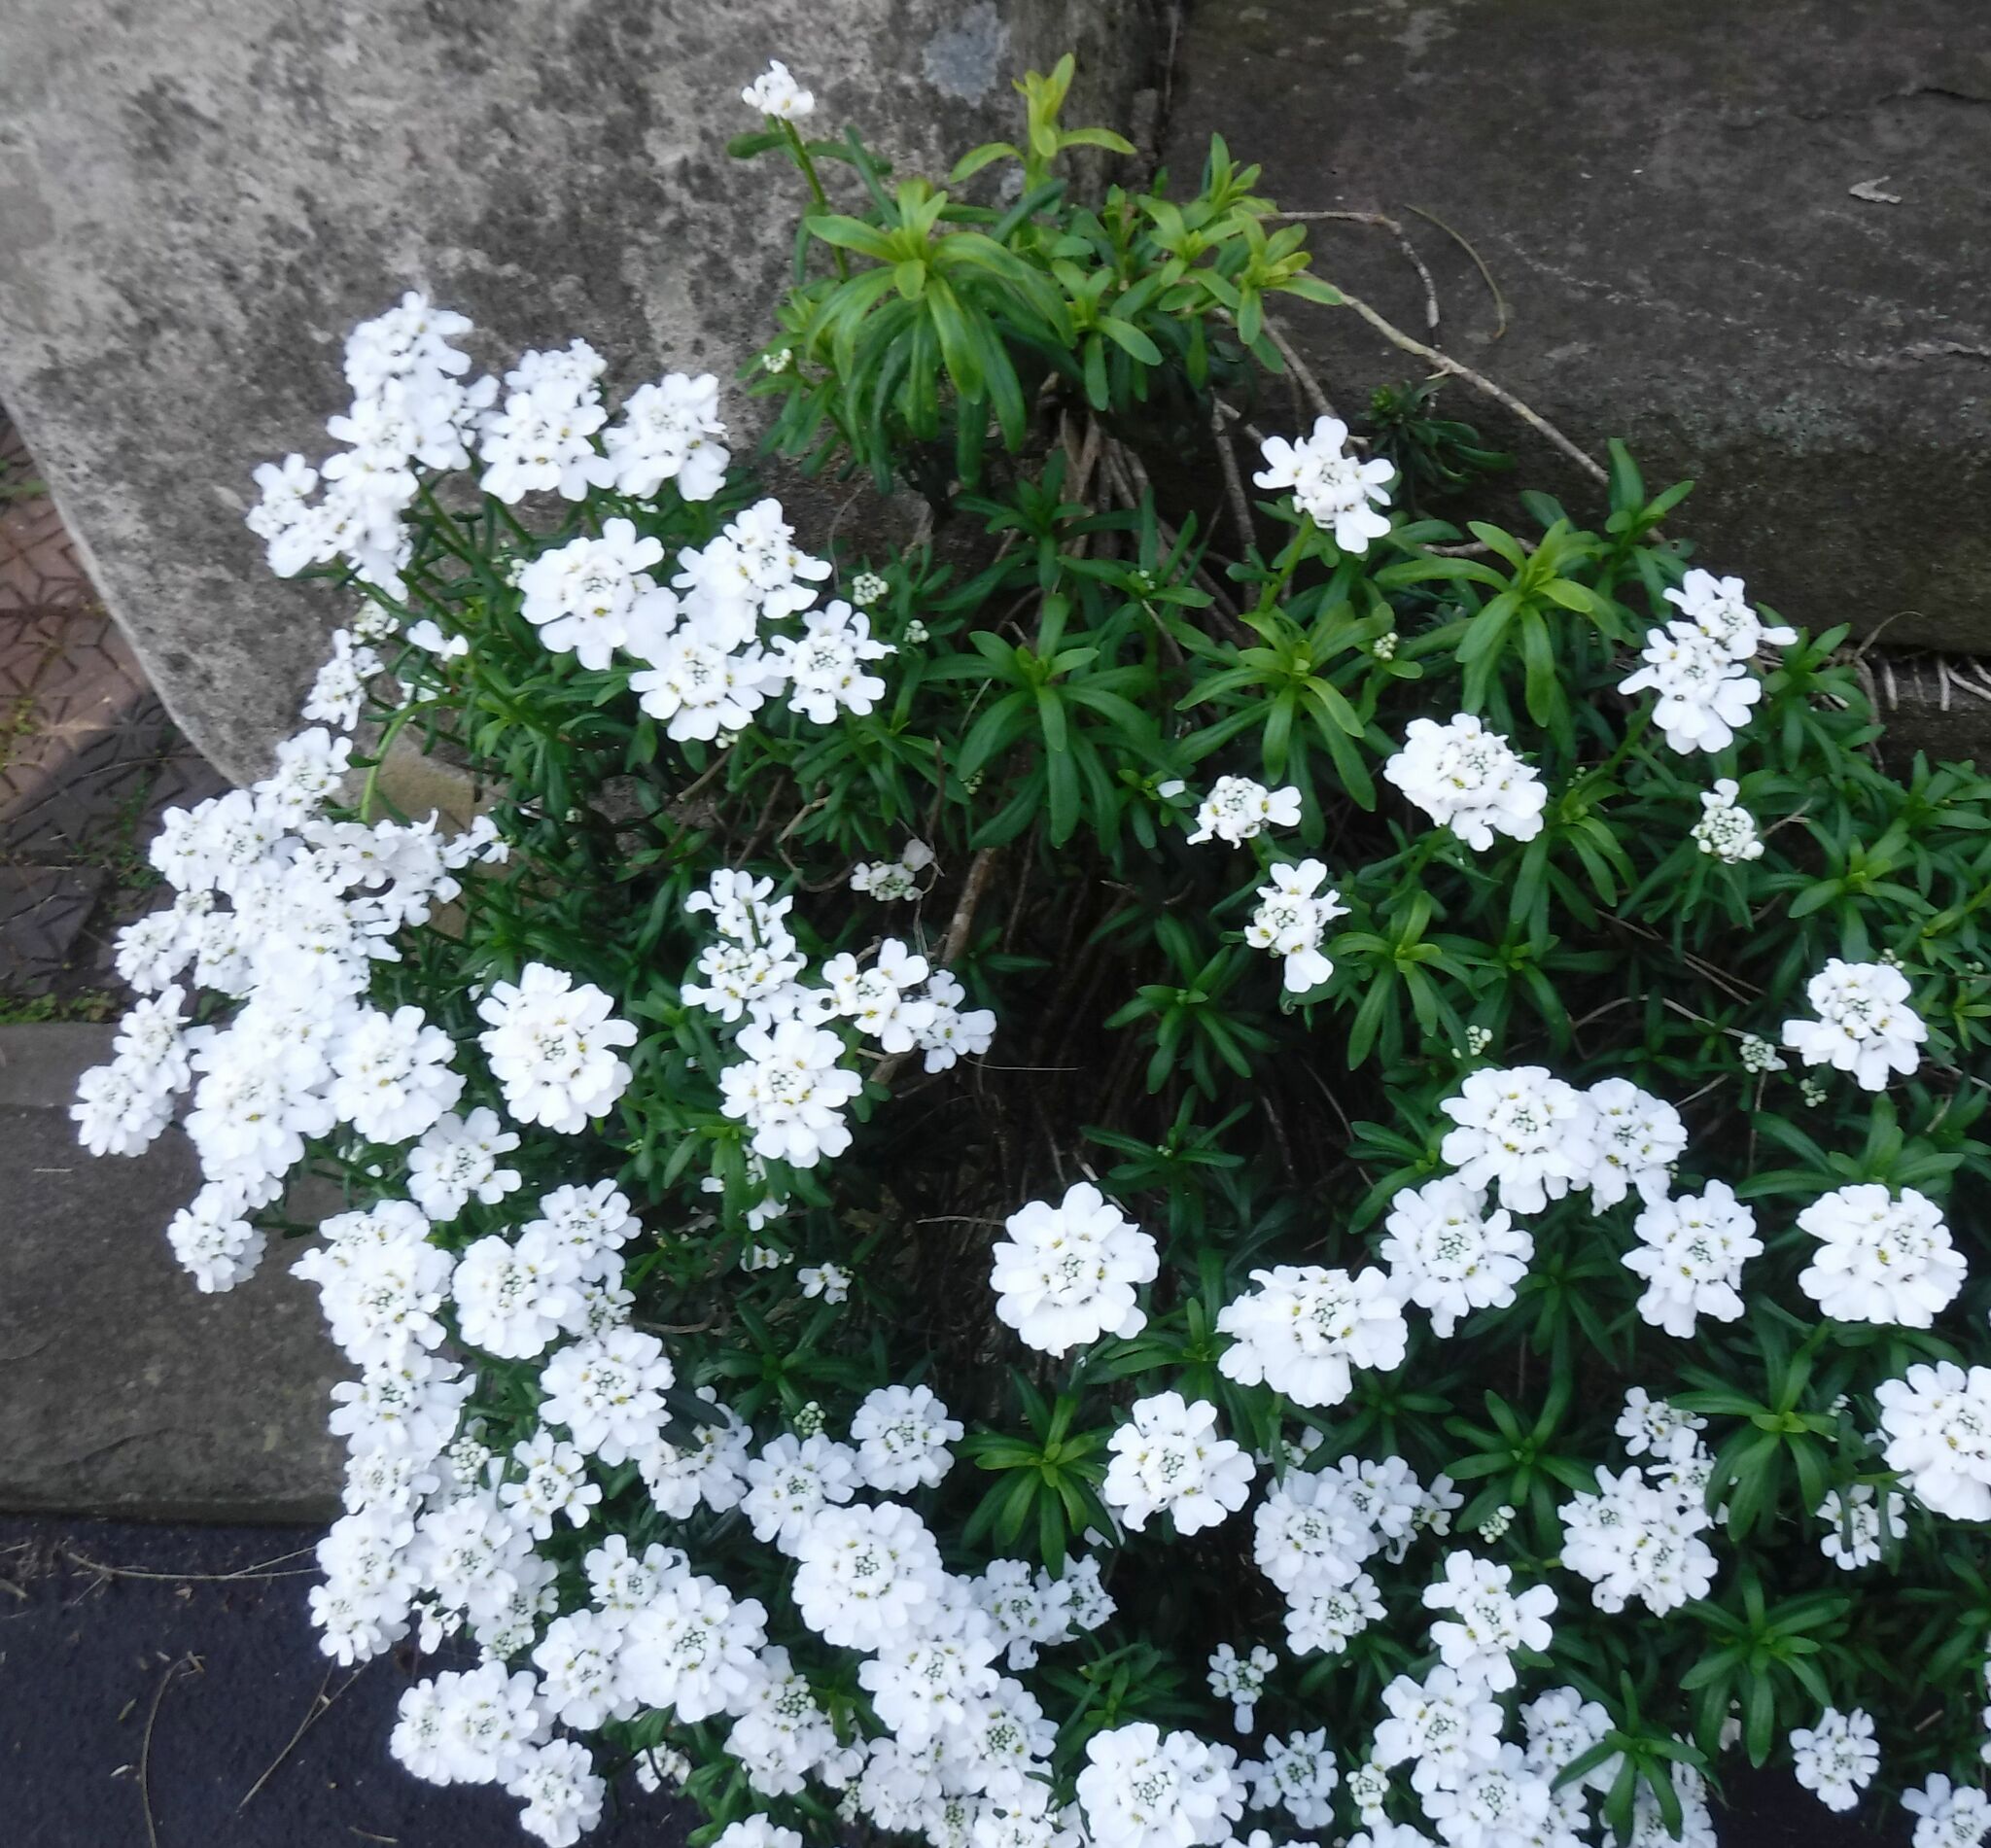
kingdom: Plantae
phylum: Tracheophyta
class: Magnoliopsida
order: Brassicales
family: Brassicaceae
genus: Iberis
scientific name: Iberis sempervirens
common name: Evergreen candytuft
